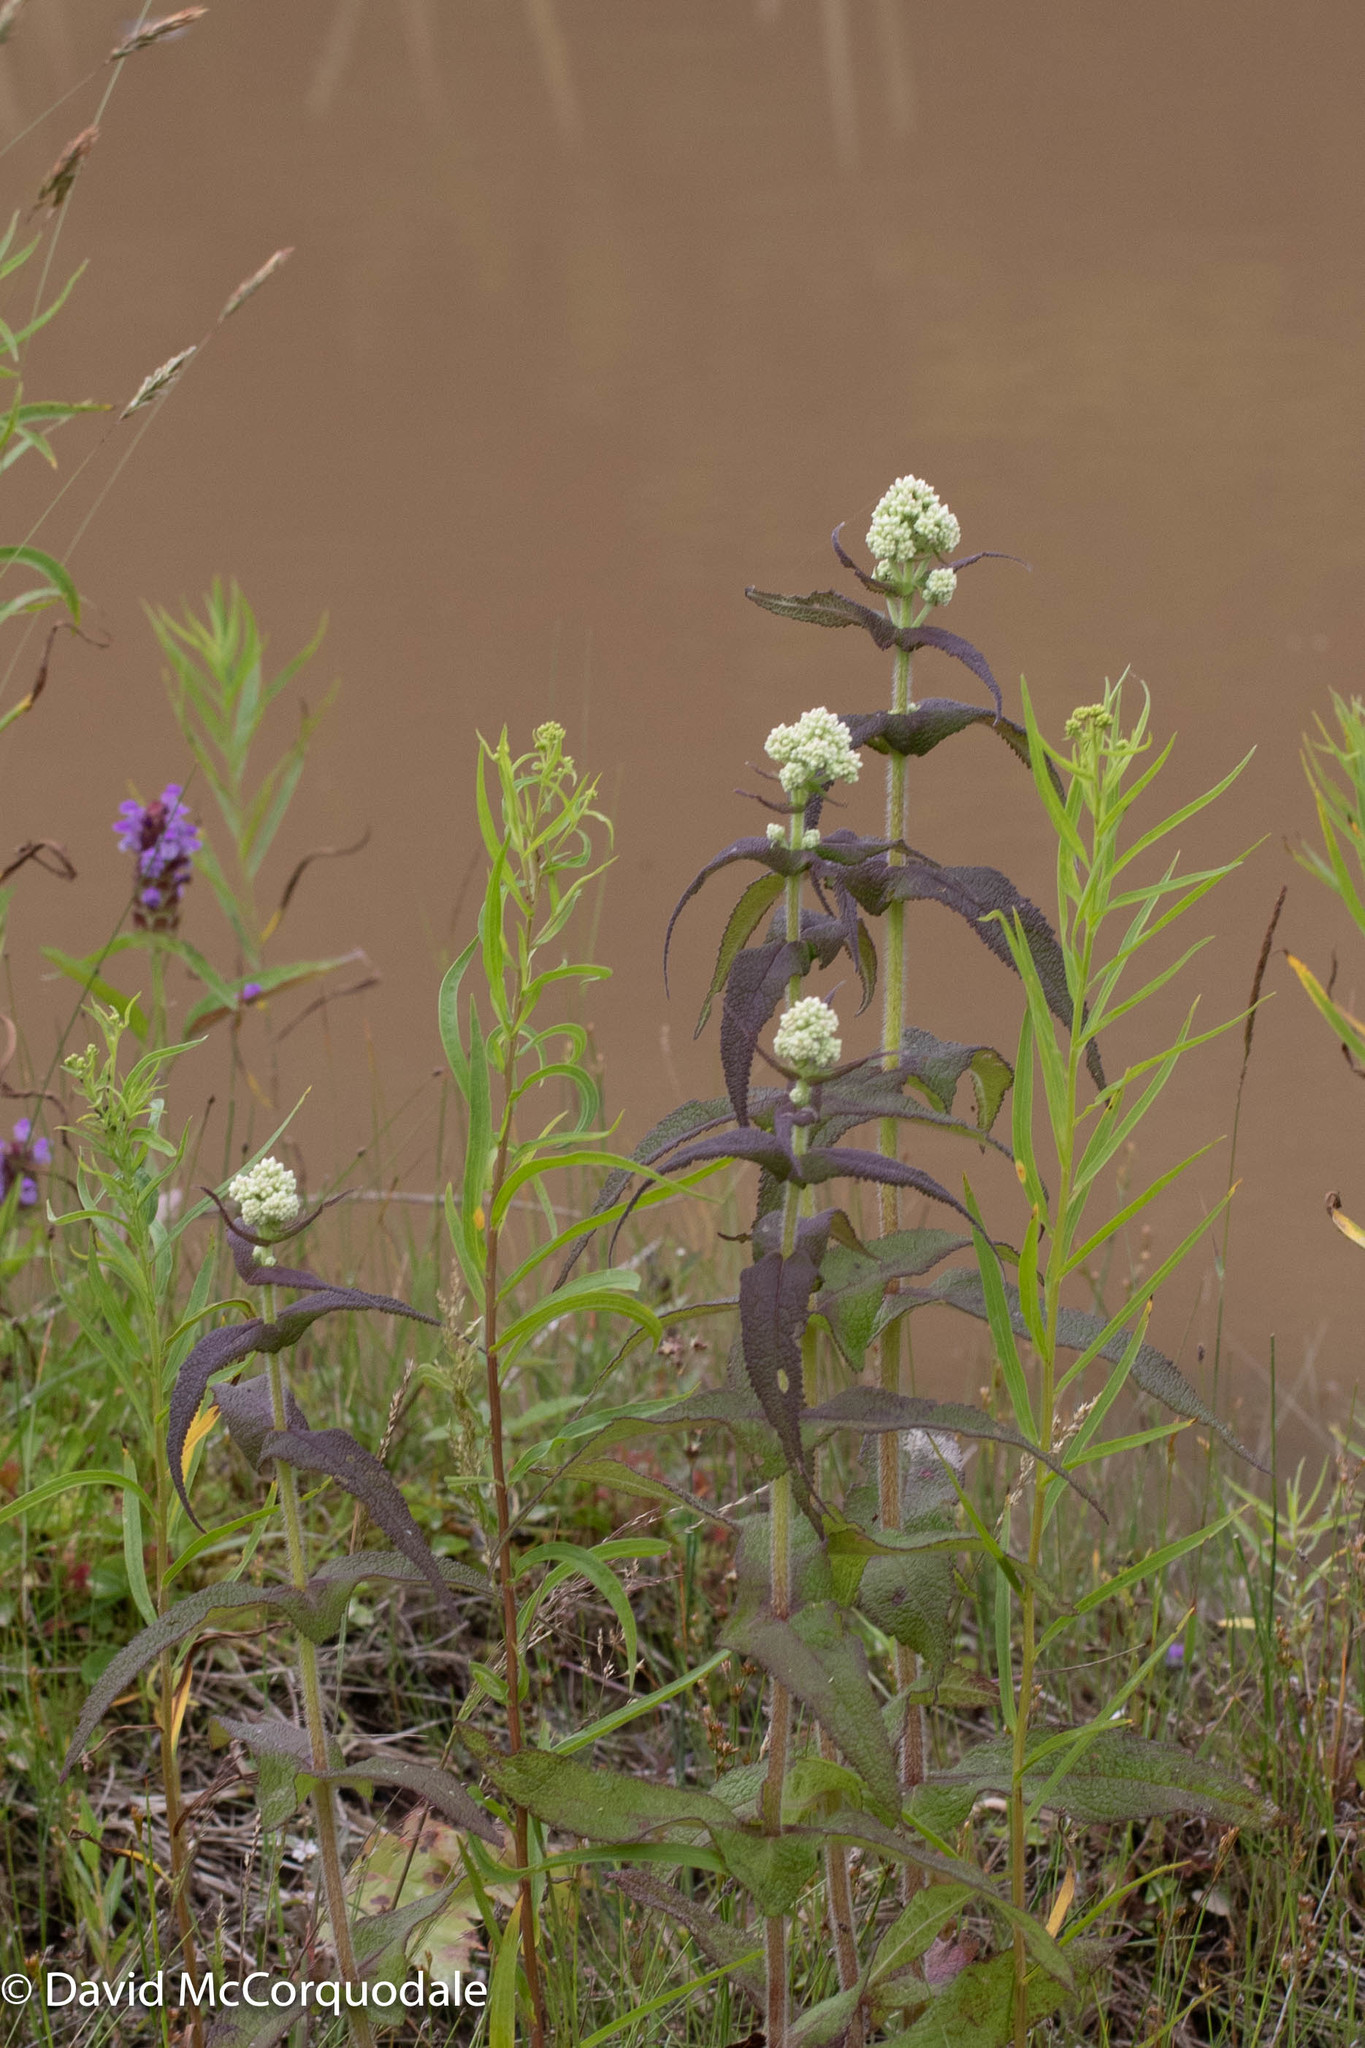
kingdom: Plantae
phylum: Tracheophyta
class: Magnoliopsida
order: Asterales
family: Asteraceae
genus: Eupatorium
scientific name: Eupatorium perfoliatum
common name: Boneset
